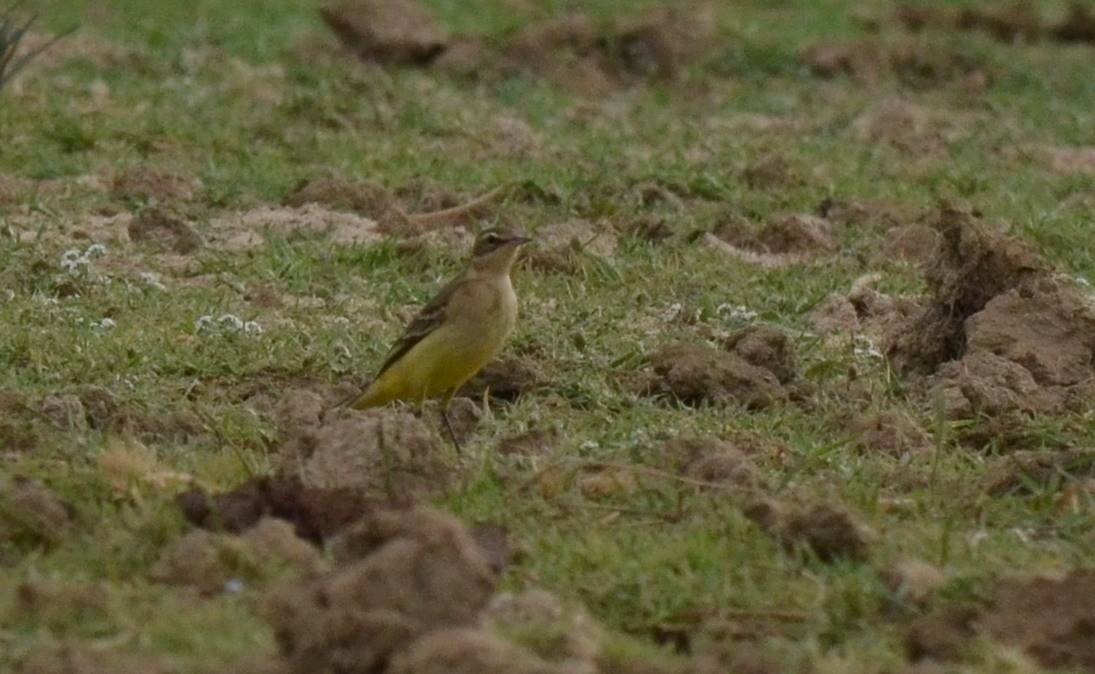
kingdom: Animalia
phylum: Chordata
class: Aves
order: Passeriformes
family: Motacillidae
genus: Motacilla
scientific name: Motacilla flava
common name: Western yellow wagtail
